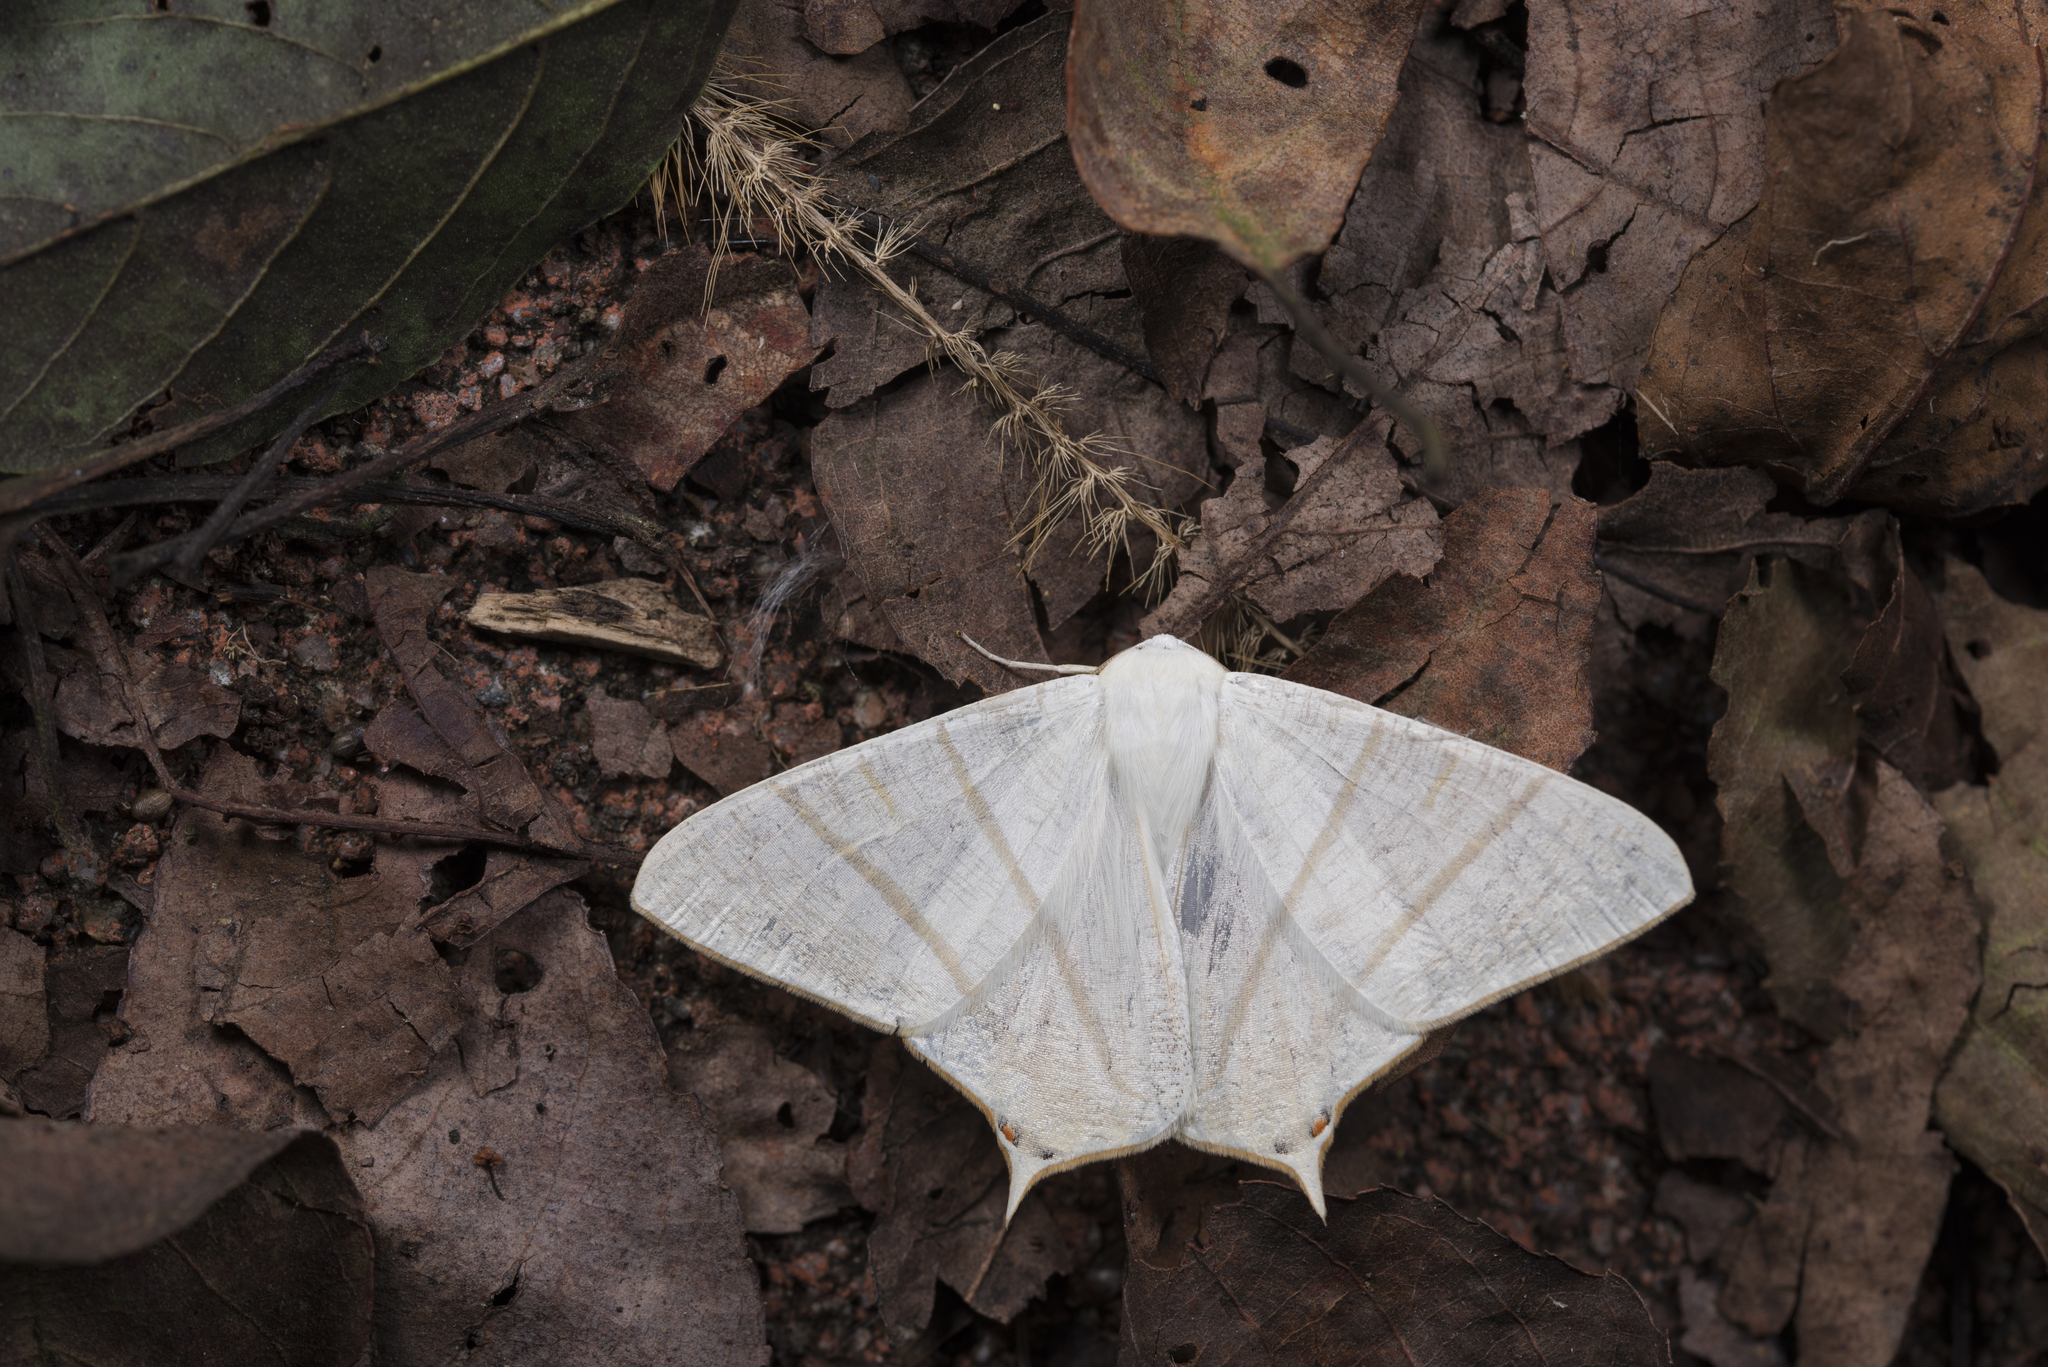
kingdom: Animalia
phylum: Arthropoda
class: Insecta
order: Lepidoptera
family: Geometridae
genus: Ourapteryx
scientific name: Ourapteryx pallidula
